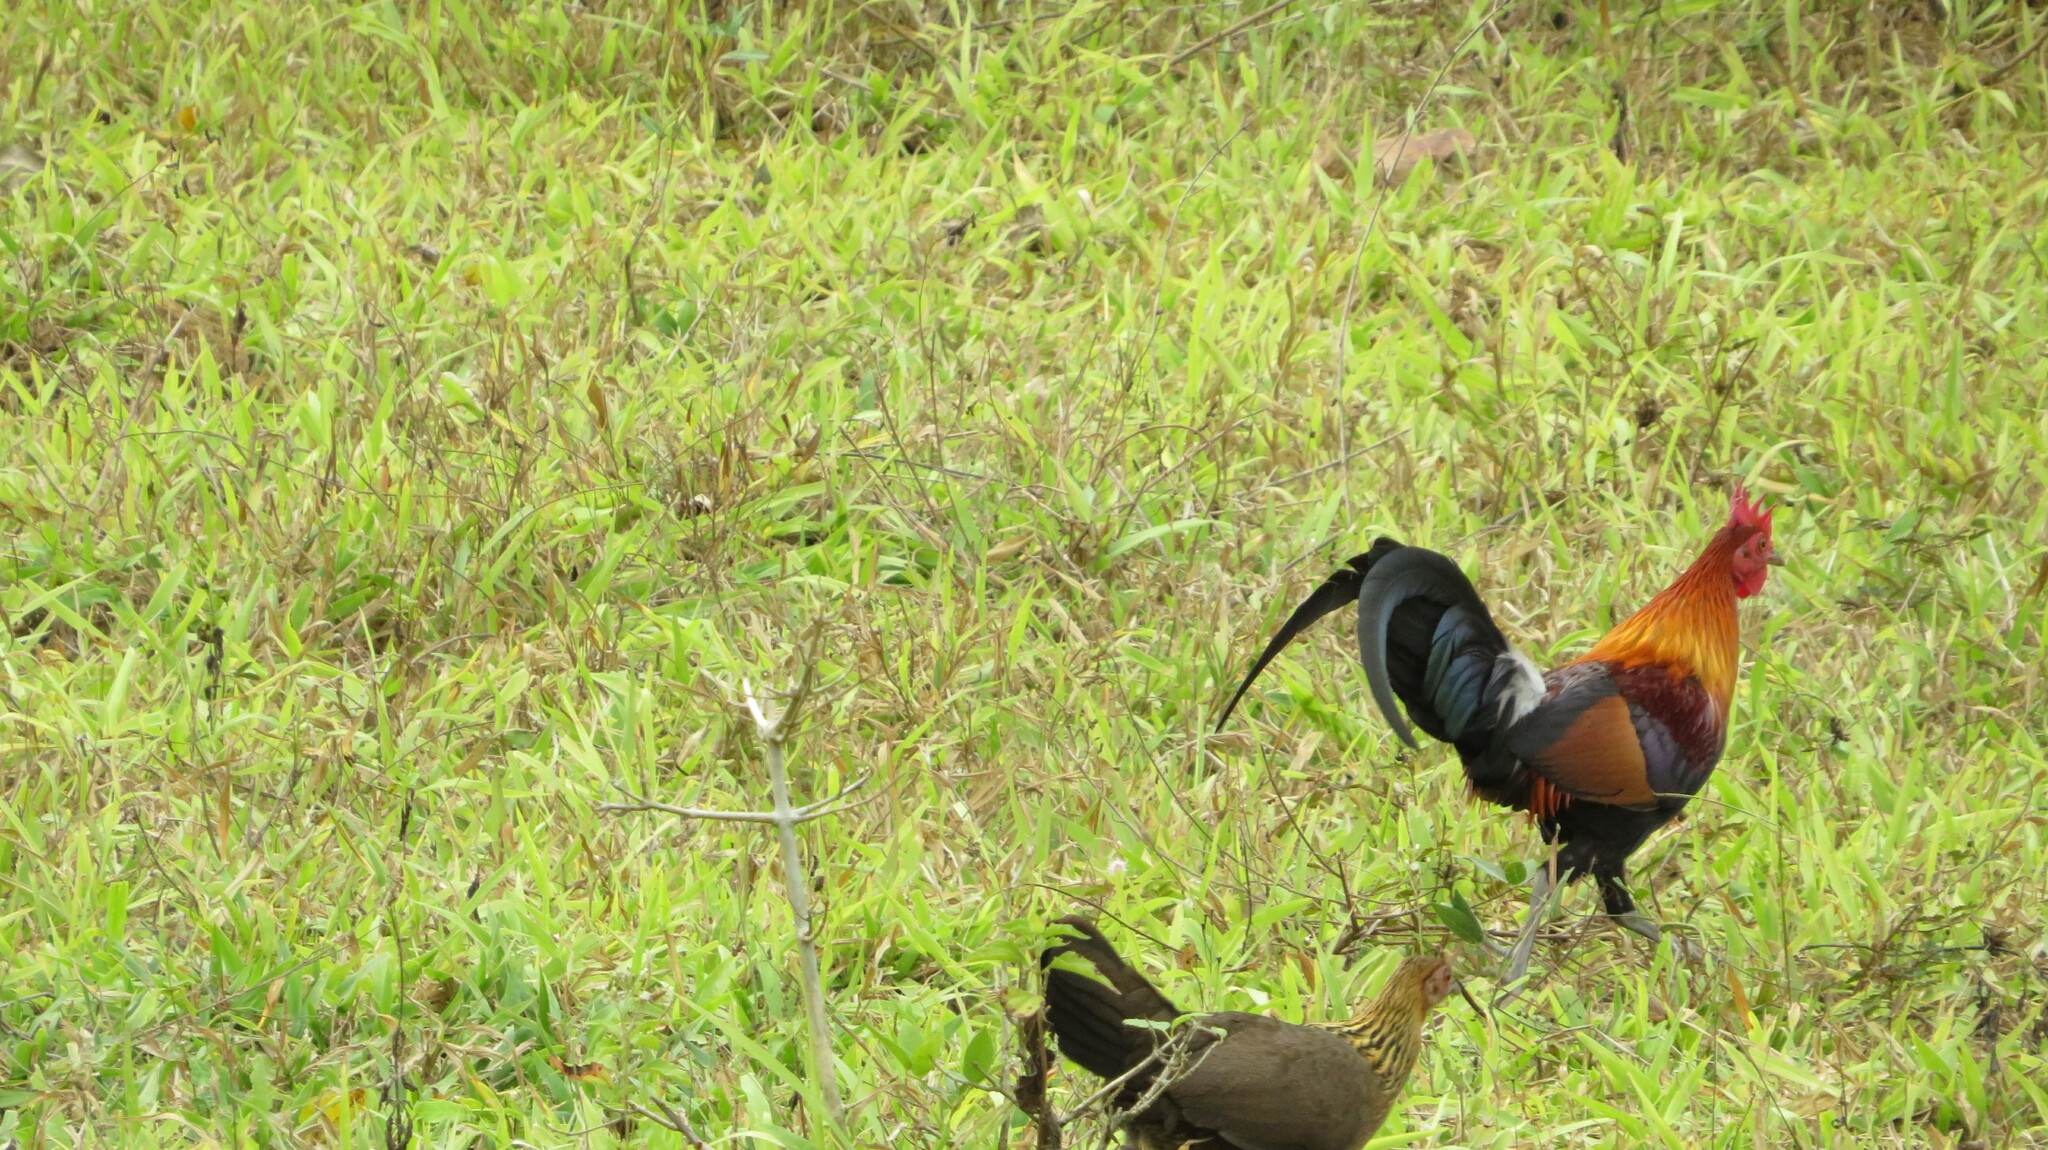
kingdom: Animalia
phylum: Chordata
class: Aves
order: Galliformes
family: Phasianidae
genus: Gallus
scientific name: Gallus gallus
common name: Red junglefowl
